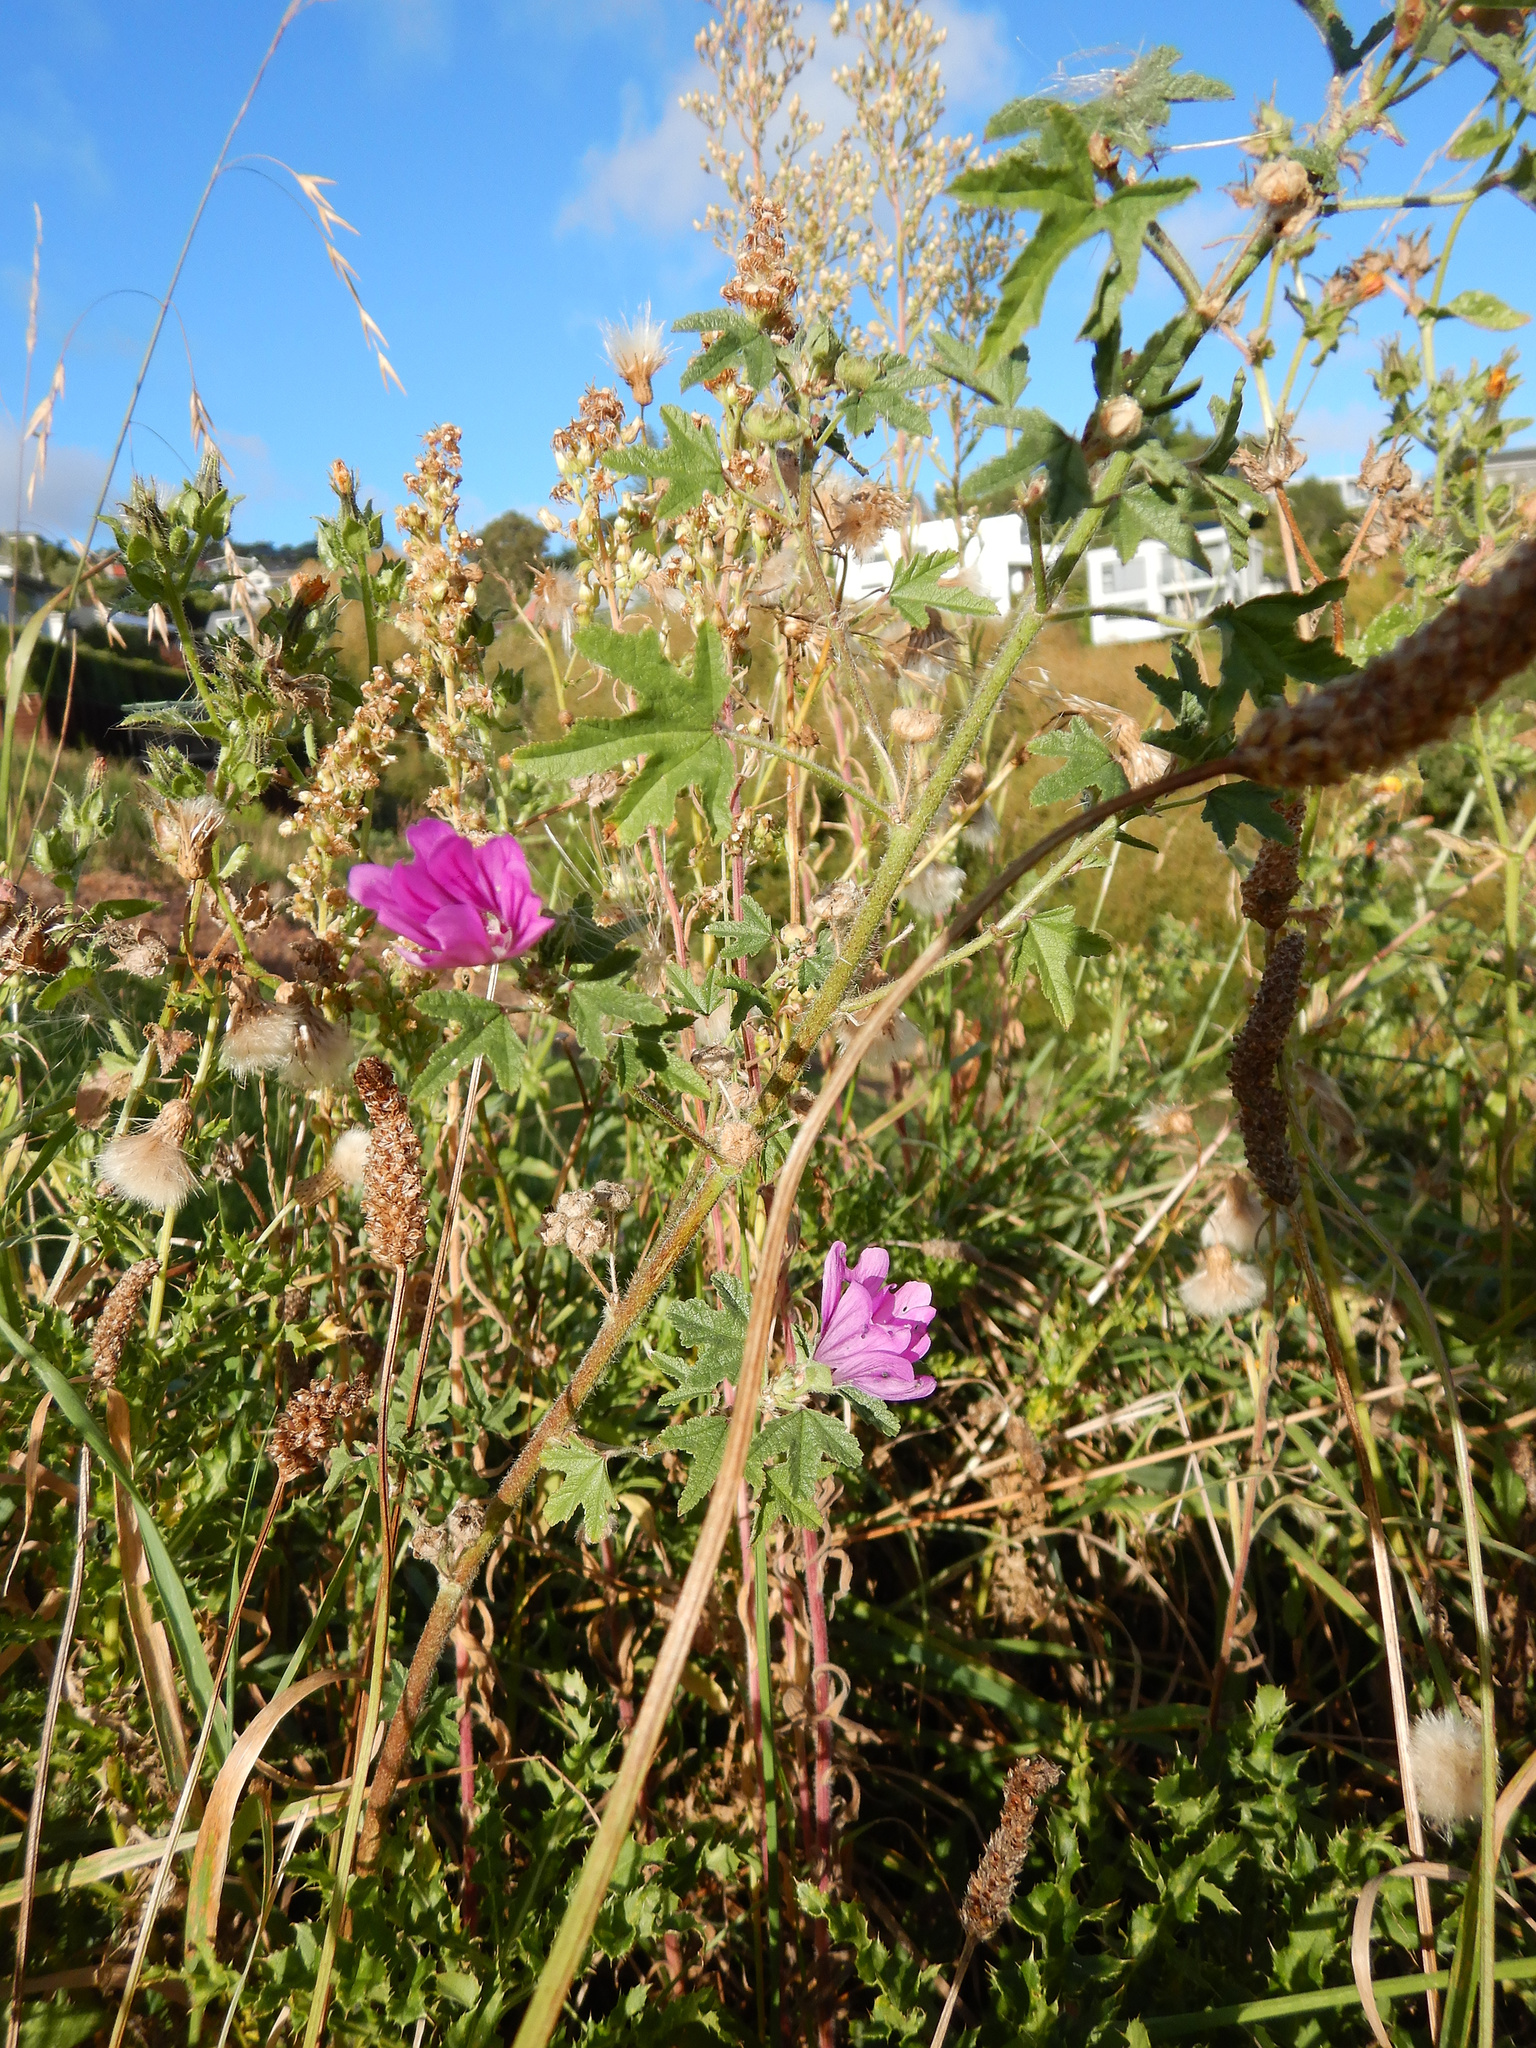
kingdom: Plantae
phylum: Tracheophyta
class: Magnoliopsida
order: Malvales
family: Malvaceae
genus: Malva
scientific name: Malva sylvestris
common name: Common mallow
